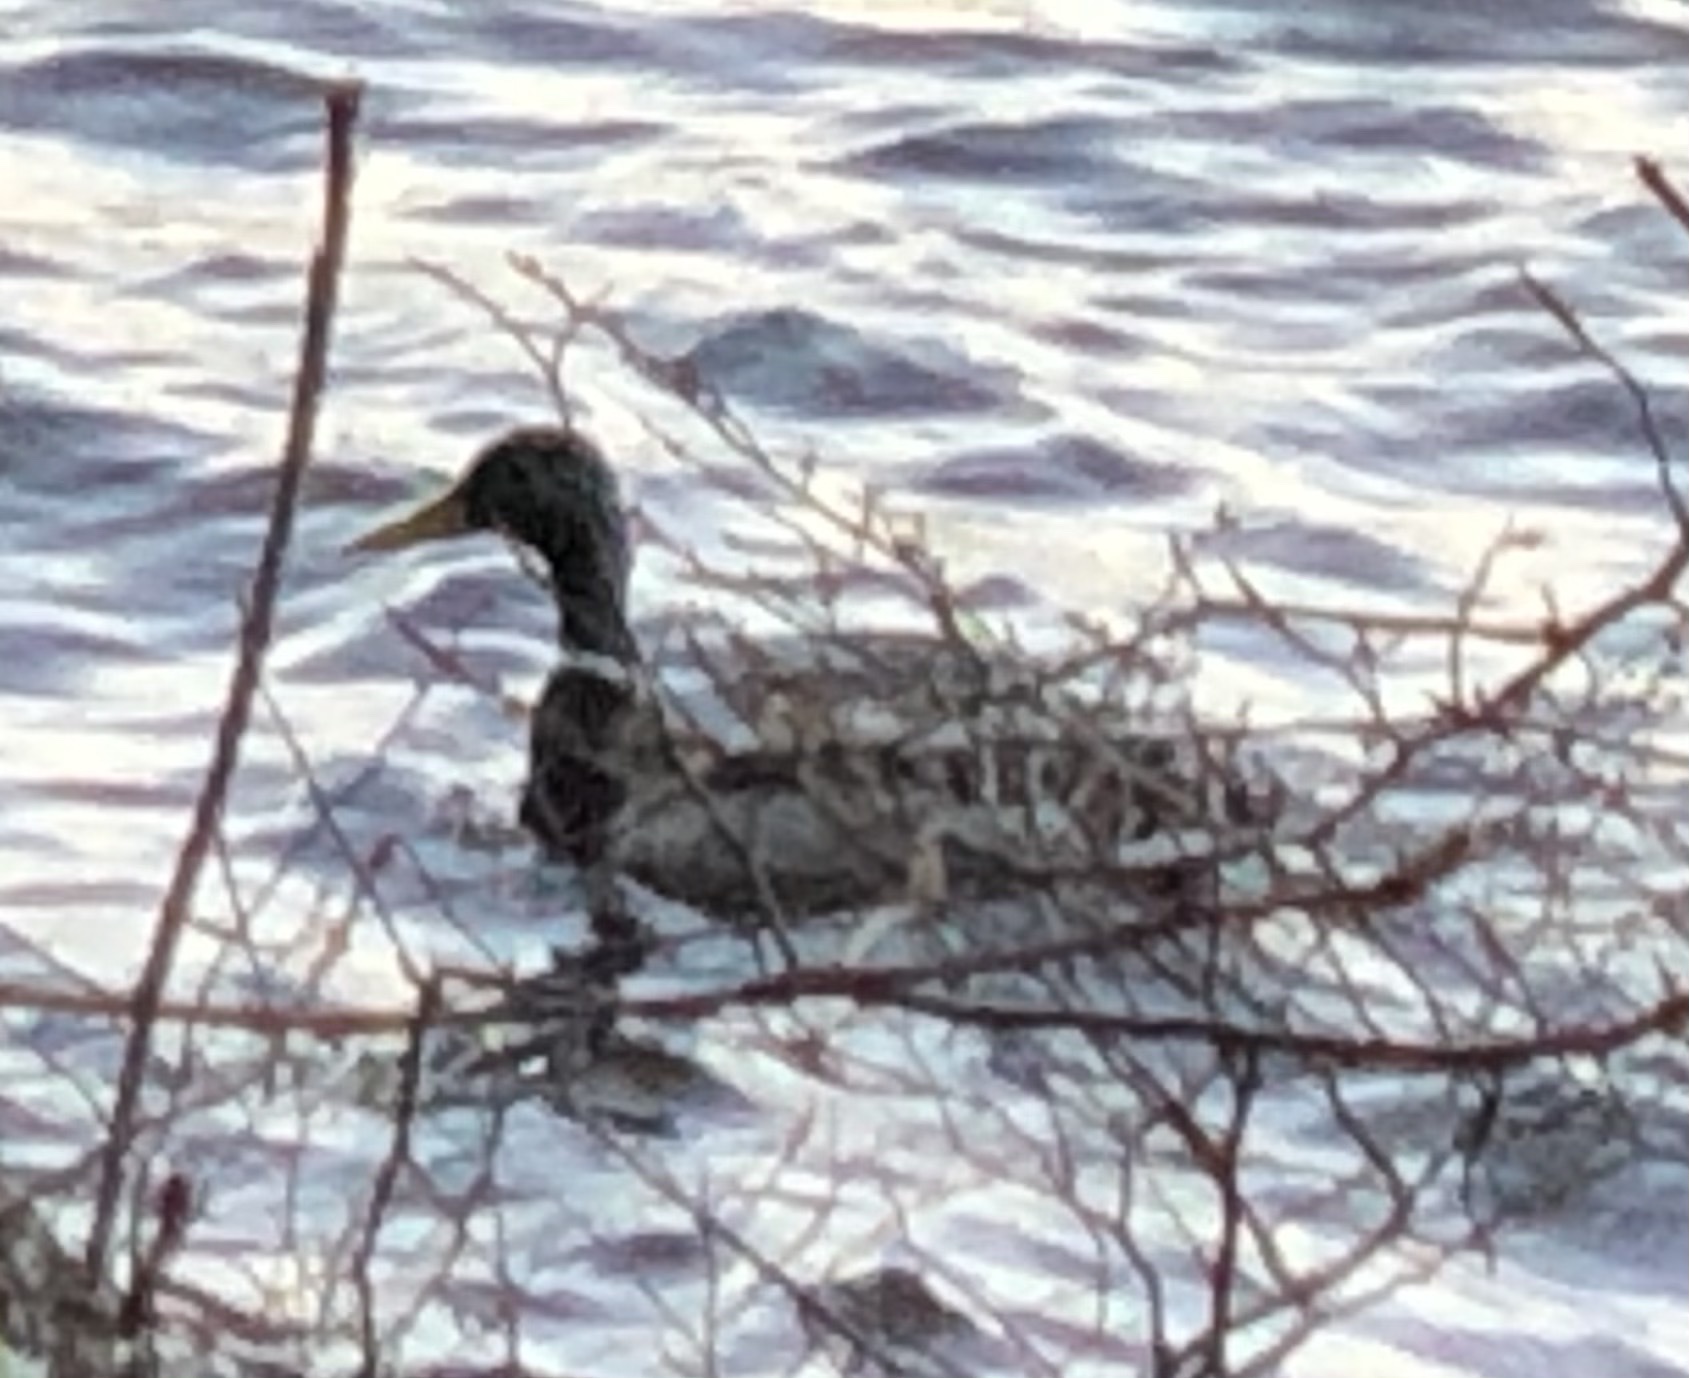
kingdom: Animalia
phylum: Chordata
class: Aves
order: Anseriformes
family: Anatidae
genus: Anas
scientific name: Anas platyrhynchos
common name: Mallard
